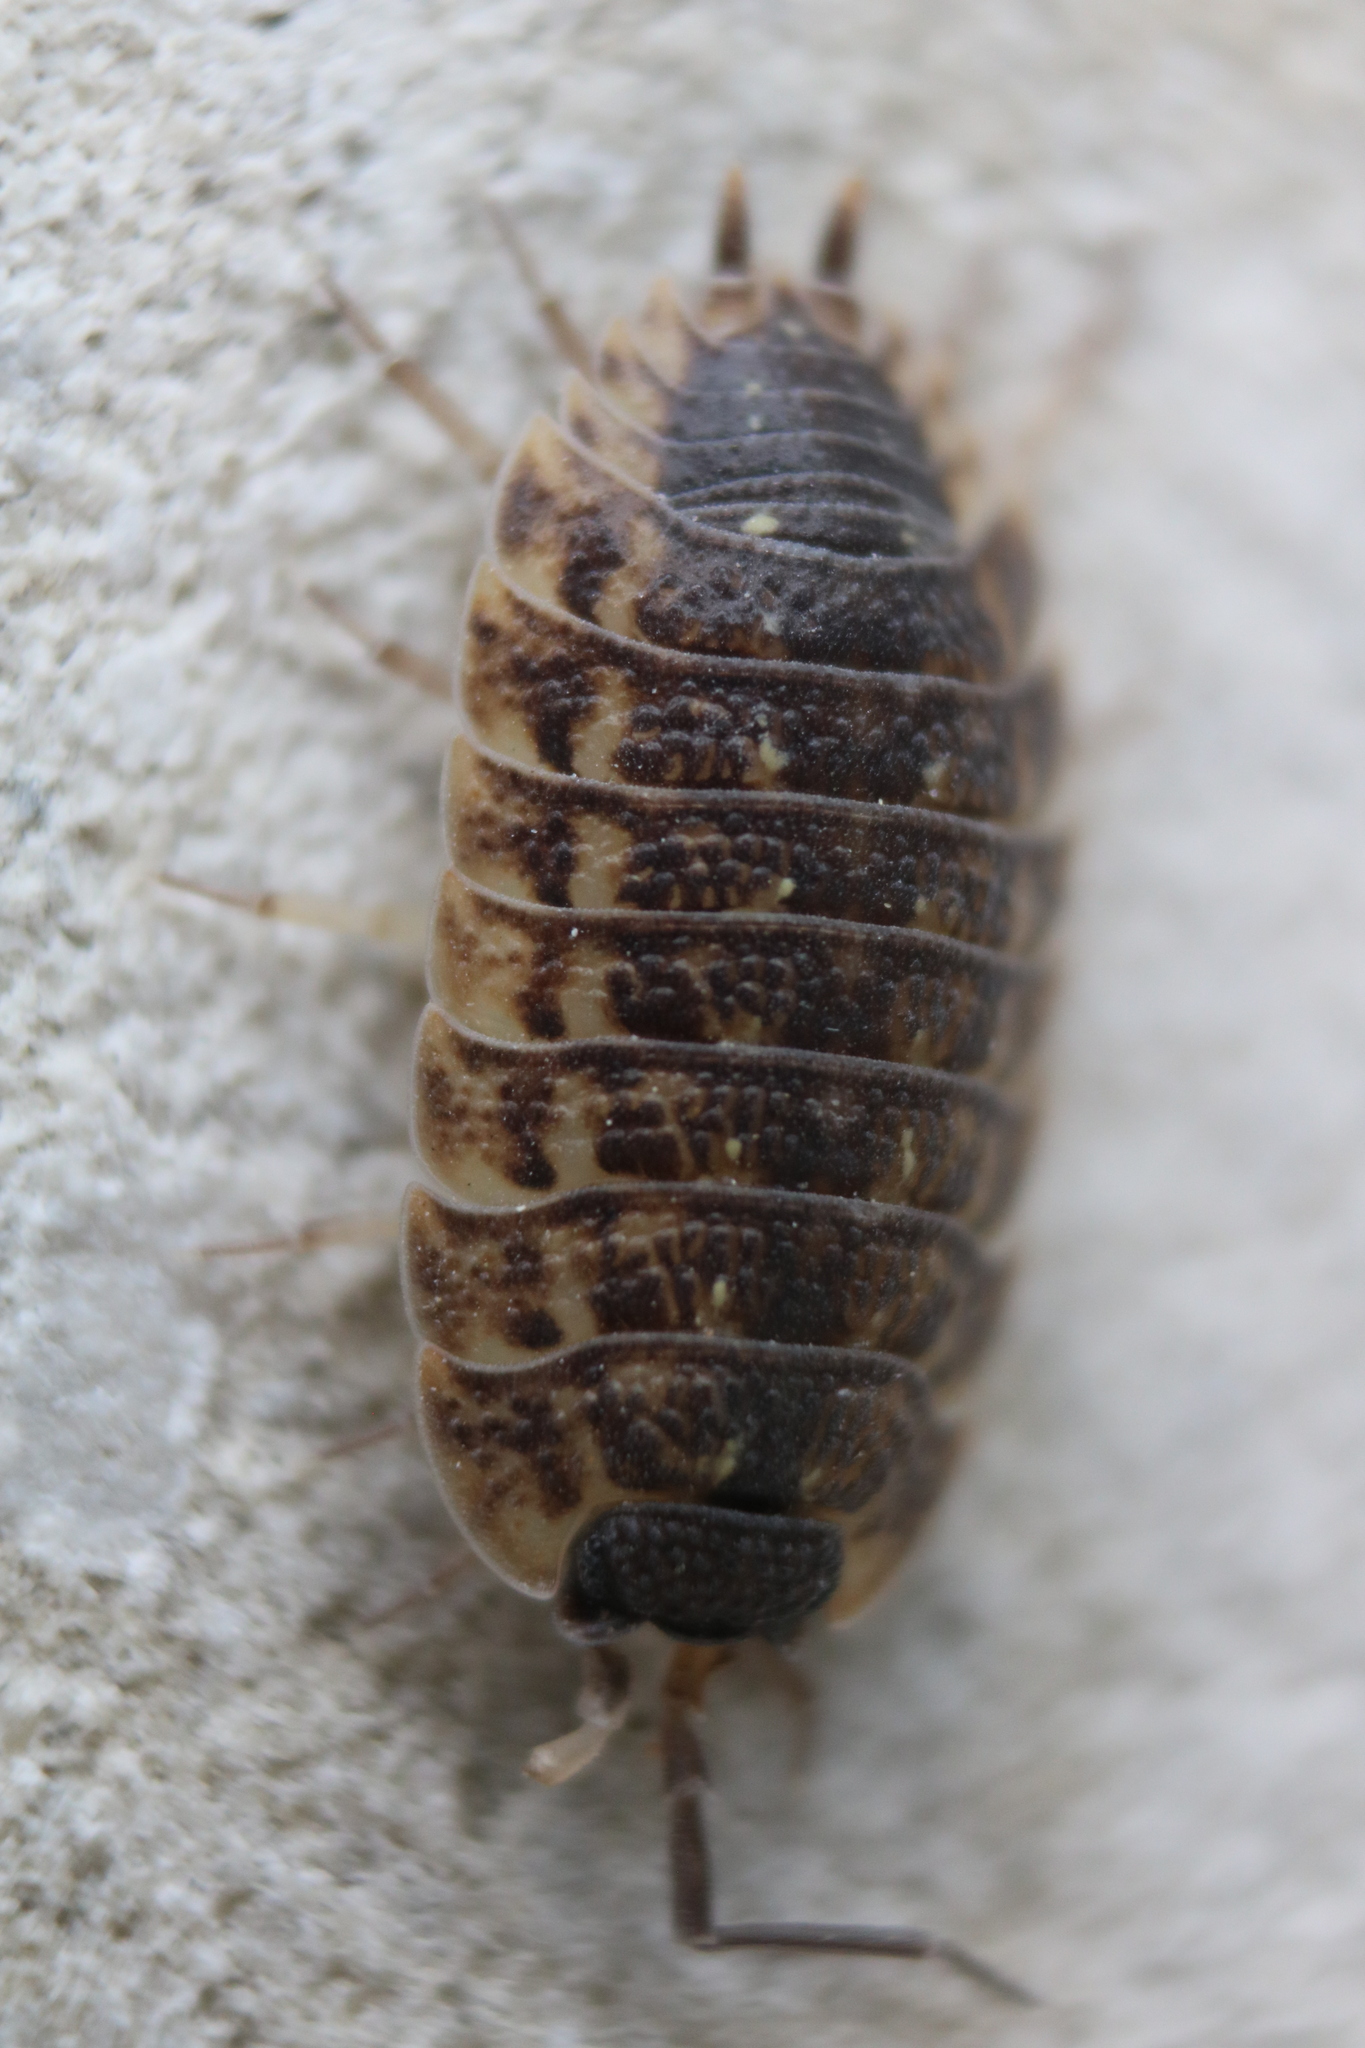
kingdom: Animalia
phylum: Arthropoda
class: Malacostraca
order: Isopoda
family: Porcellionidae
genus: Porcellio
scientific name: Porcellio spinicornis
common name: Painted woodlouse
